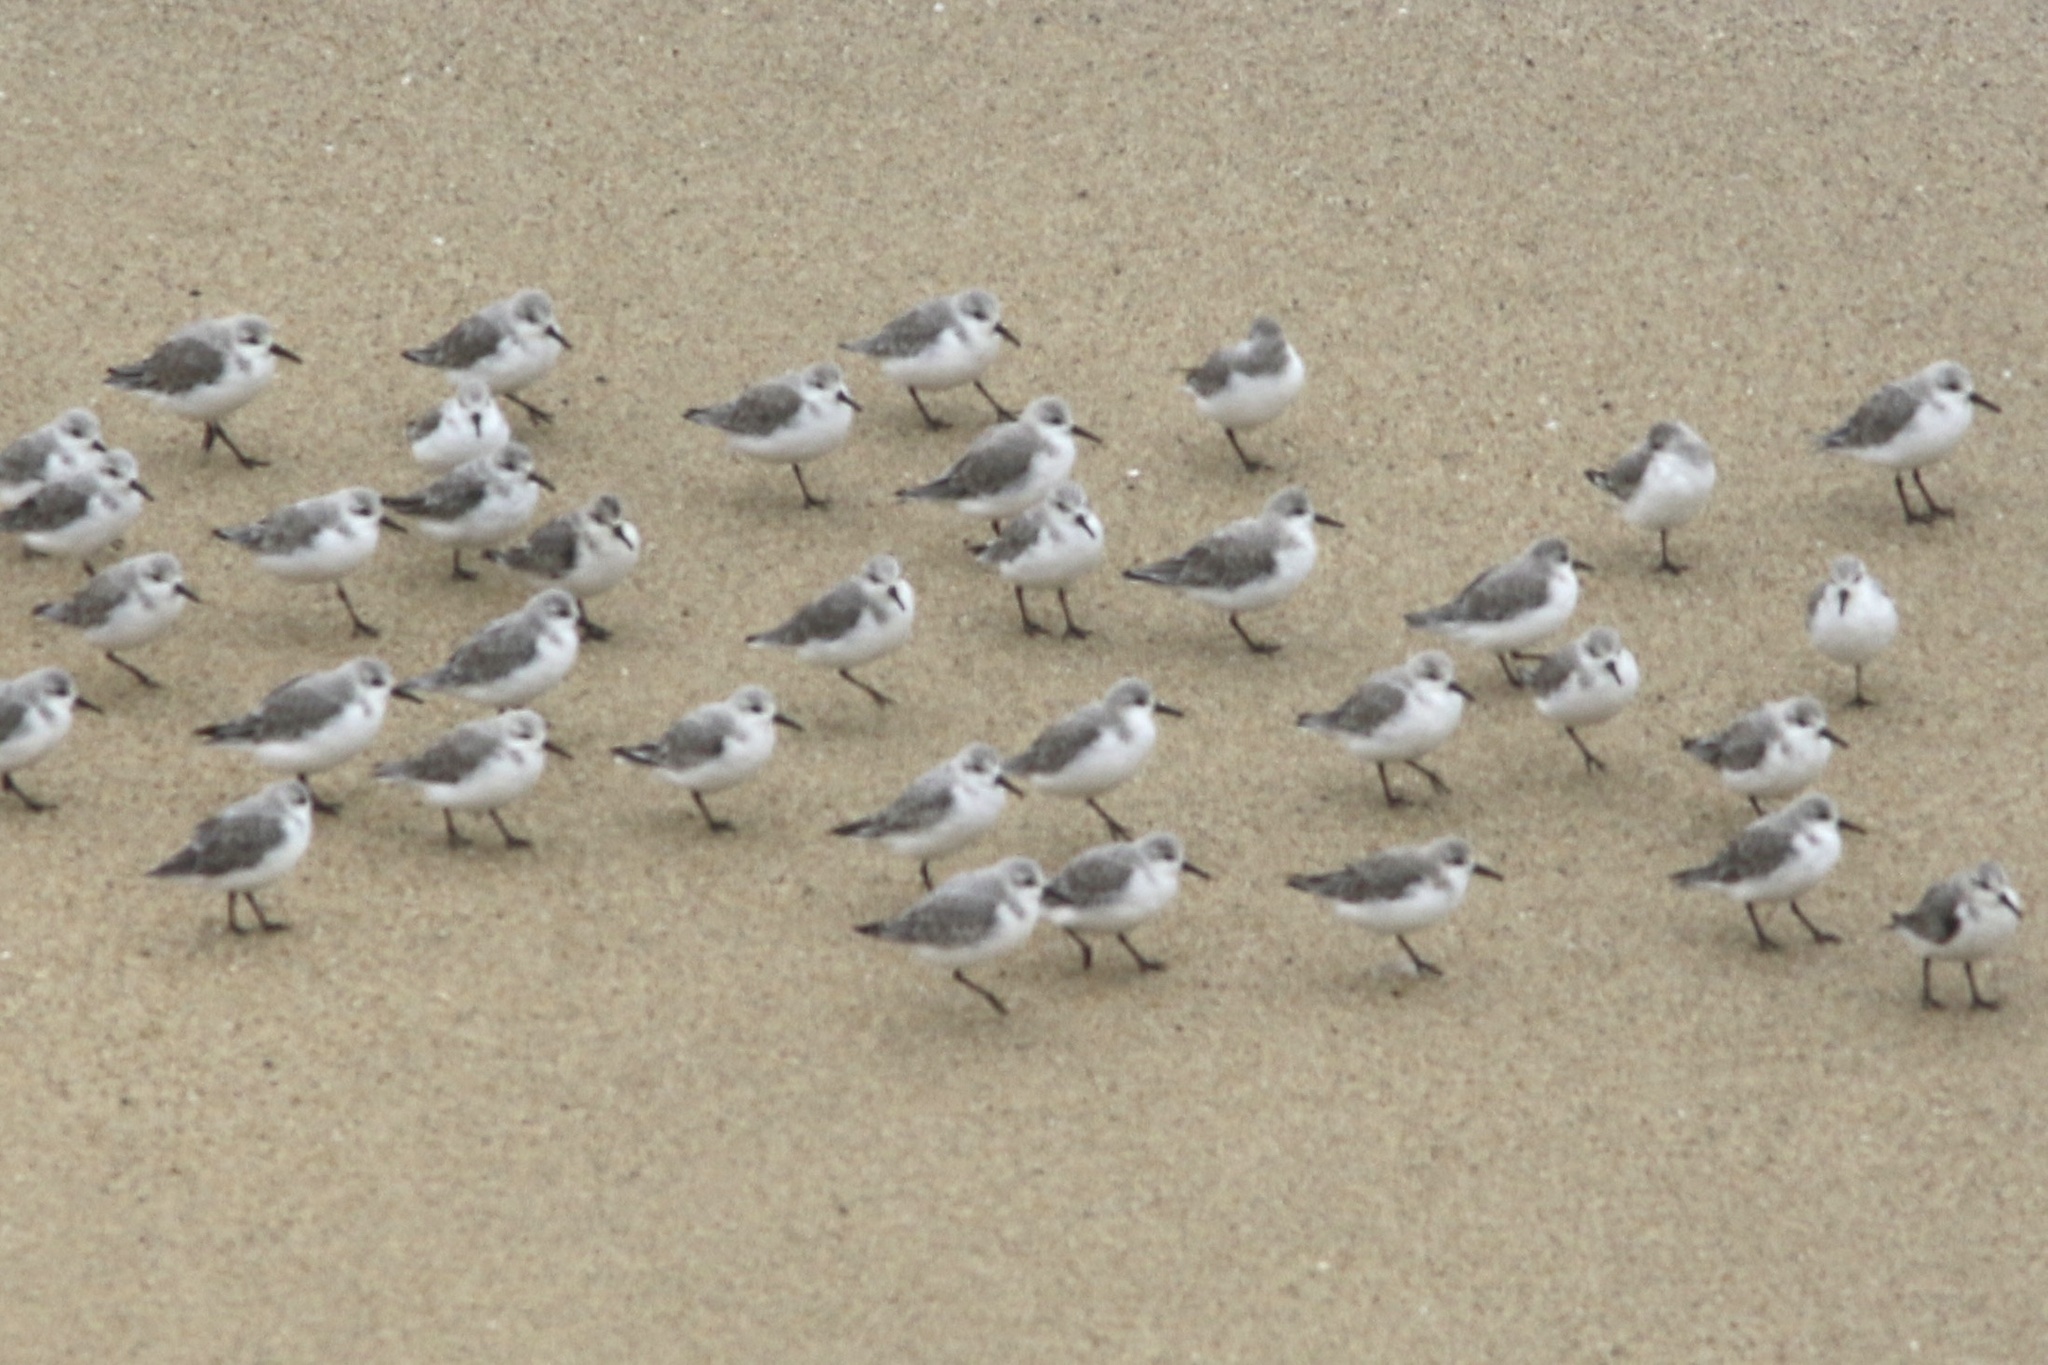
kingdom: Animalia
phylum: Chordata
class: Aves
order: Charadriiformes
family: Scolopacidae
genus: Calidris
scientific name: Calidris alba
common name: Sanderling
